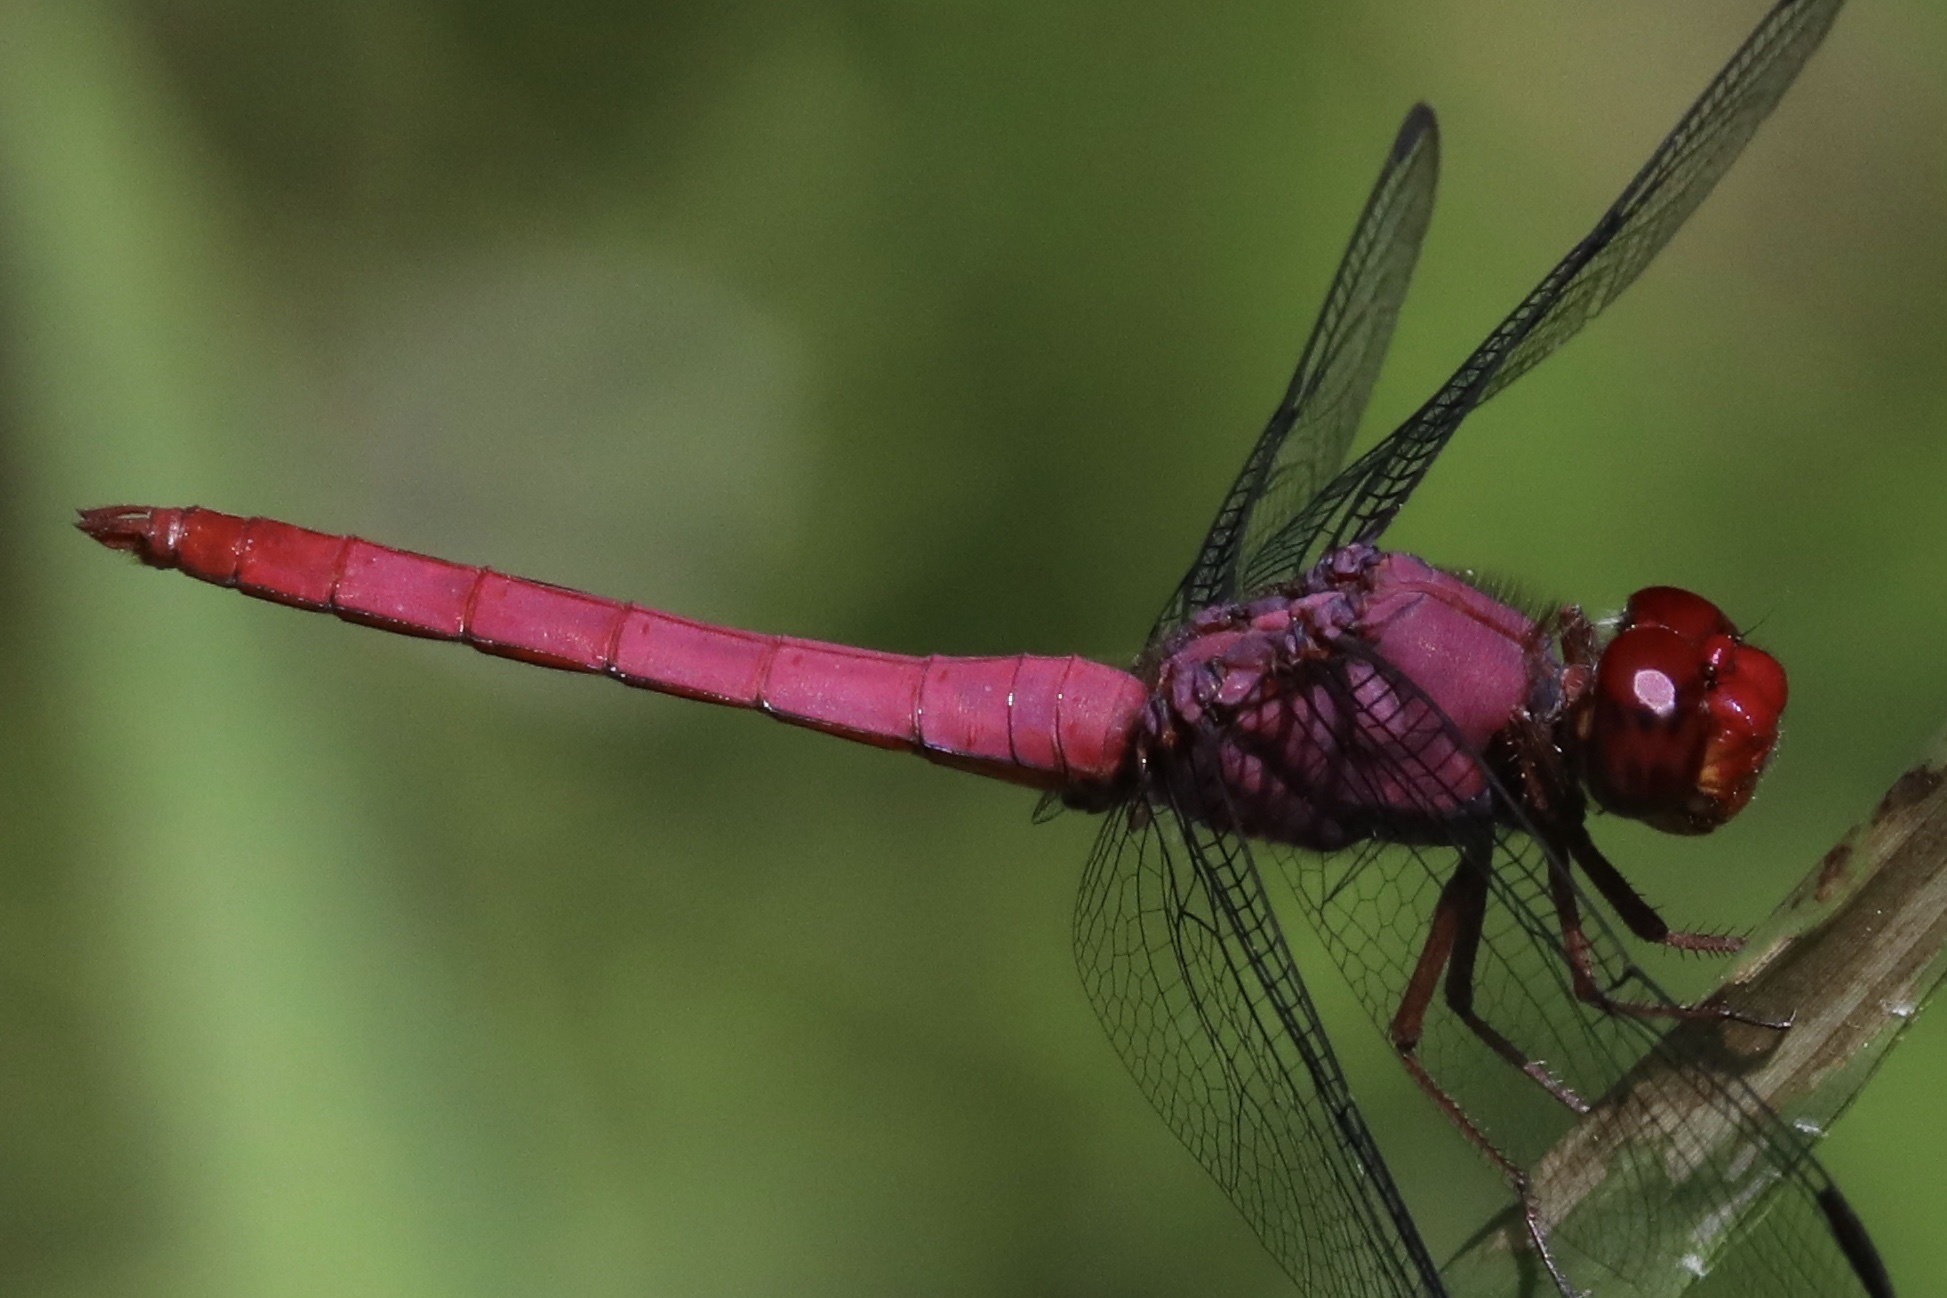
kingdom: Animalia
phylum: Arthropoda
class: Insecta
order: Odonata
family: Libellulidae
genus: Orthemis
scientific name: Orthemis discolor
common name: Carmine skimmer
